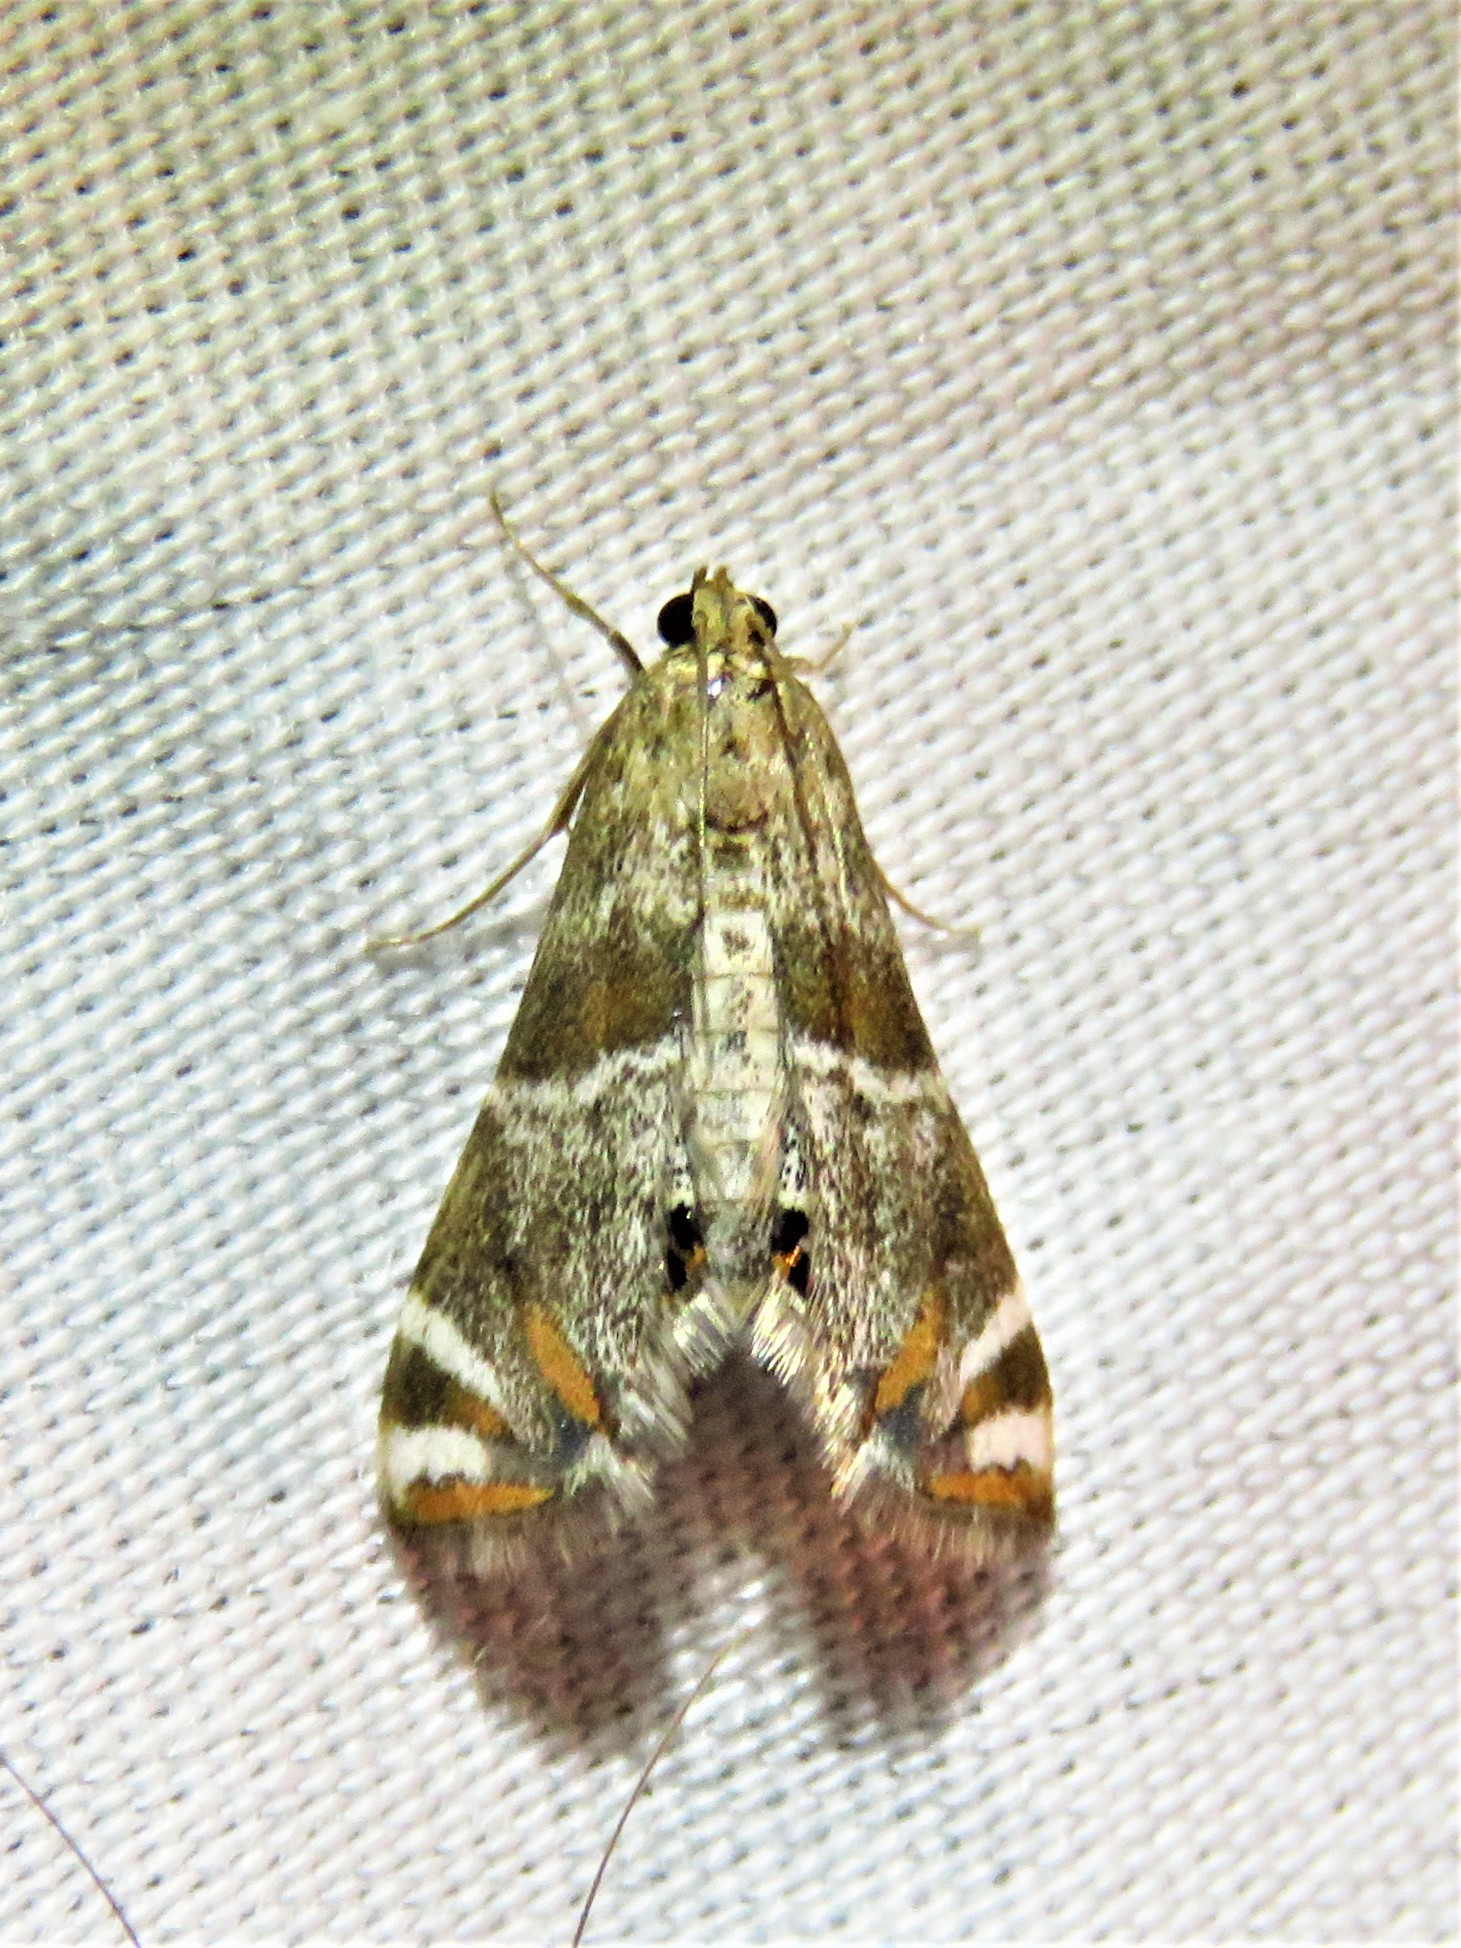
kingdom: Animalia
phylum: Arthropoda
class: Insecta
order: Lepidoptera
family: Crambidae
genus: Petrophila
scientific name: Petrophila jaliscalis
